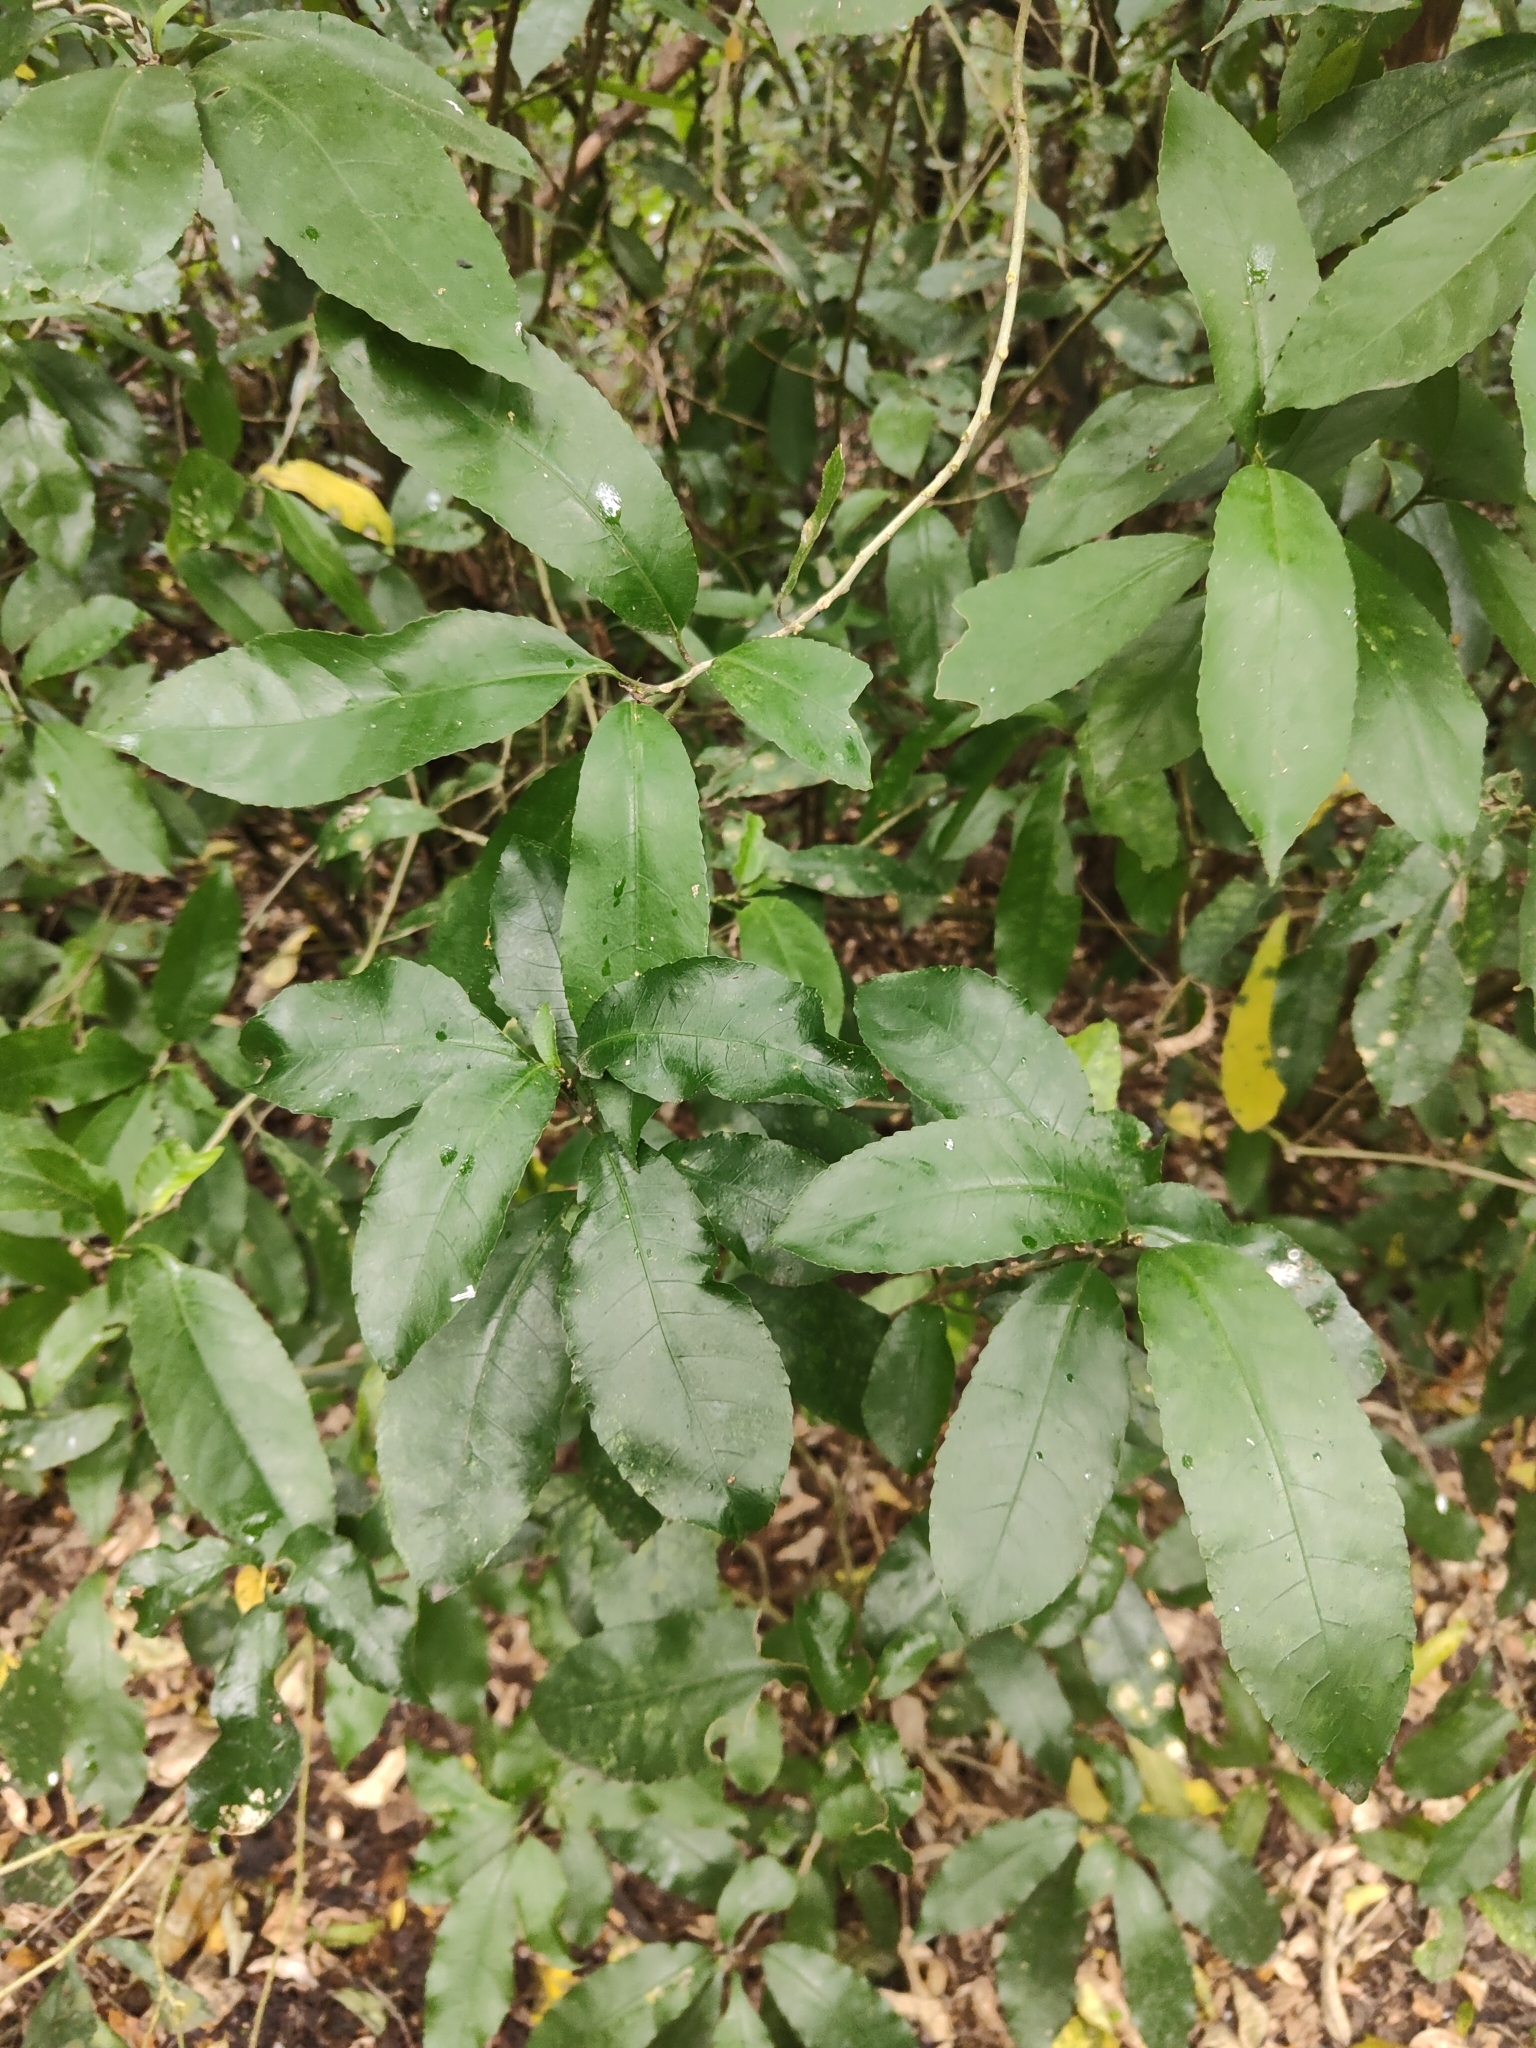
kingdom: Plantae
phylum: Tracheophyta
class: Magnoliopsida
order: Malpighiales
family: Violaceae
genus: Melicytus
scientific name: Melicytus ramiflorus
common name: Mahoe
